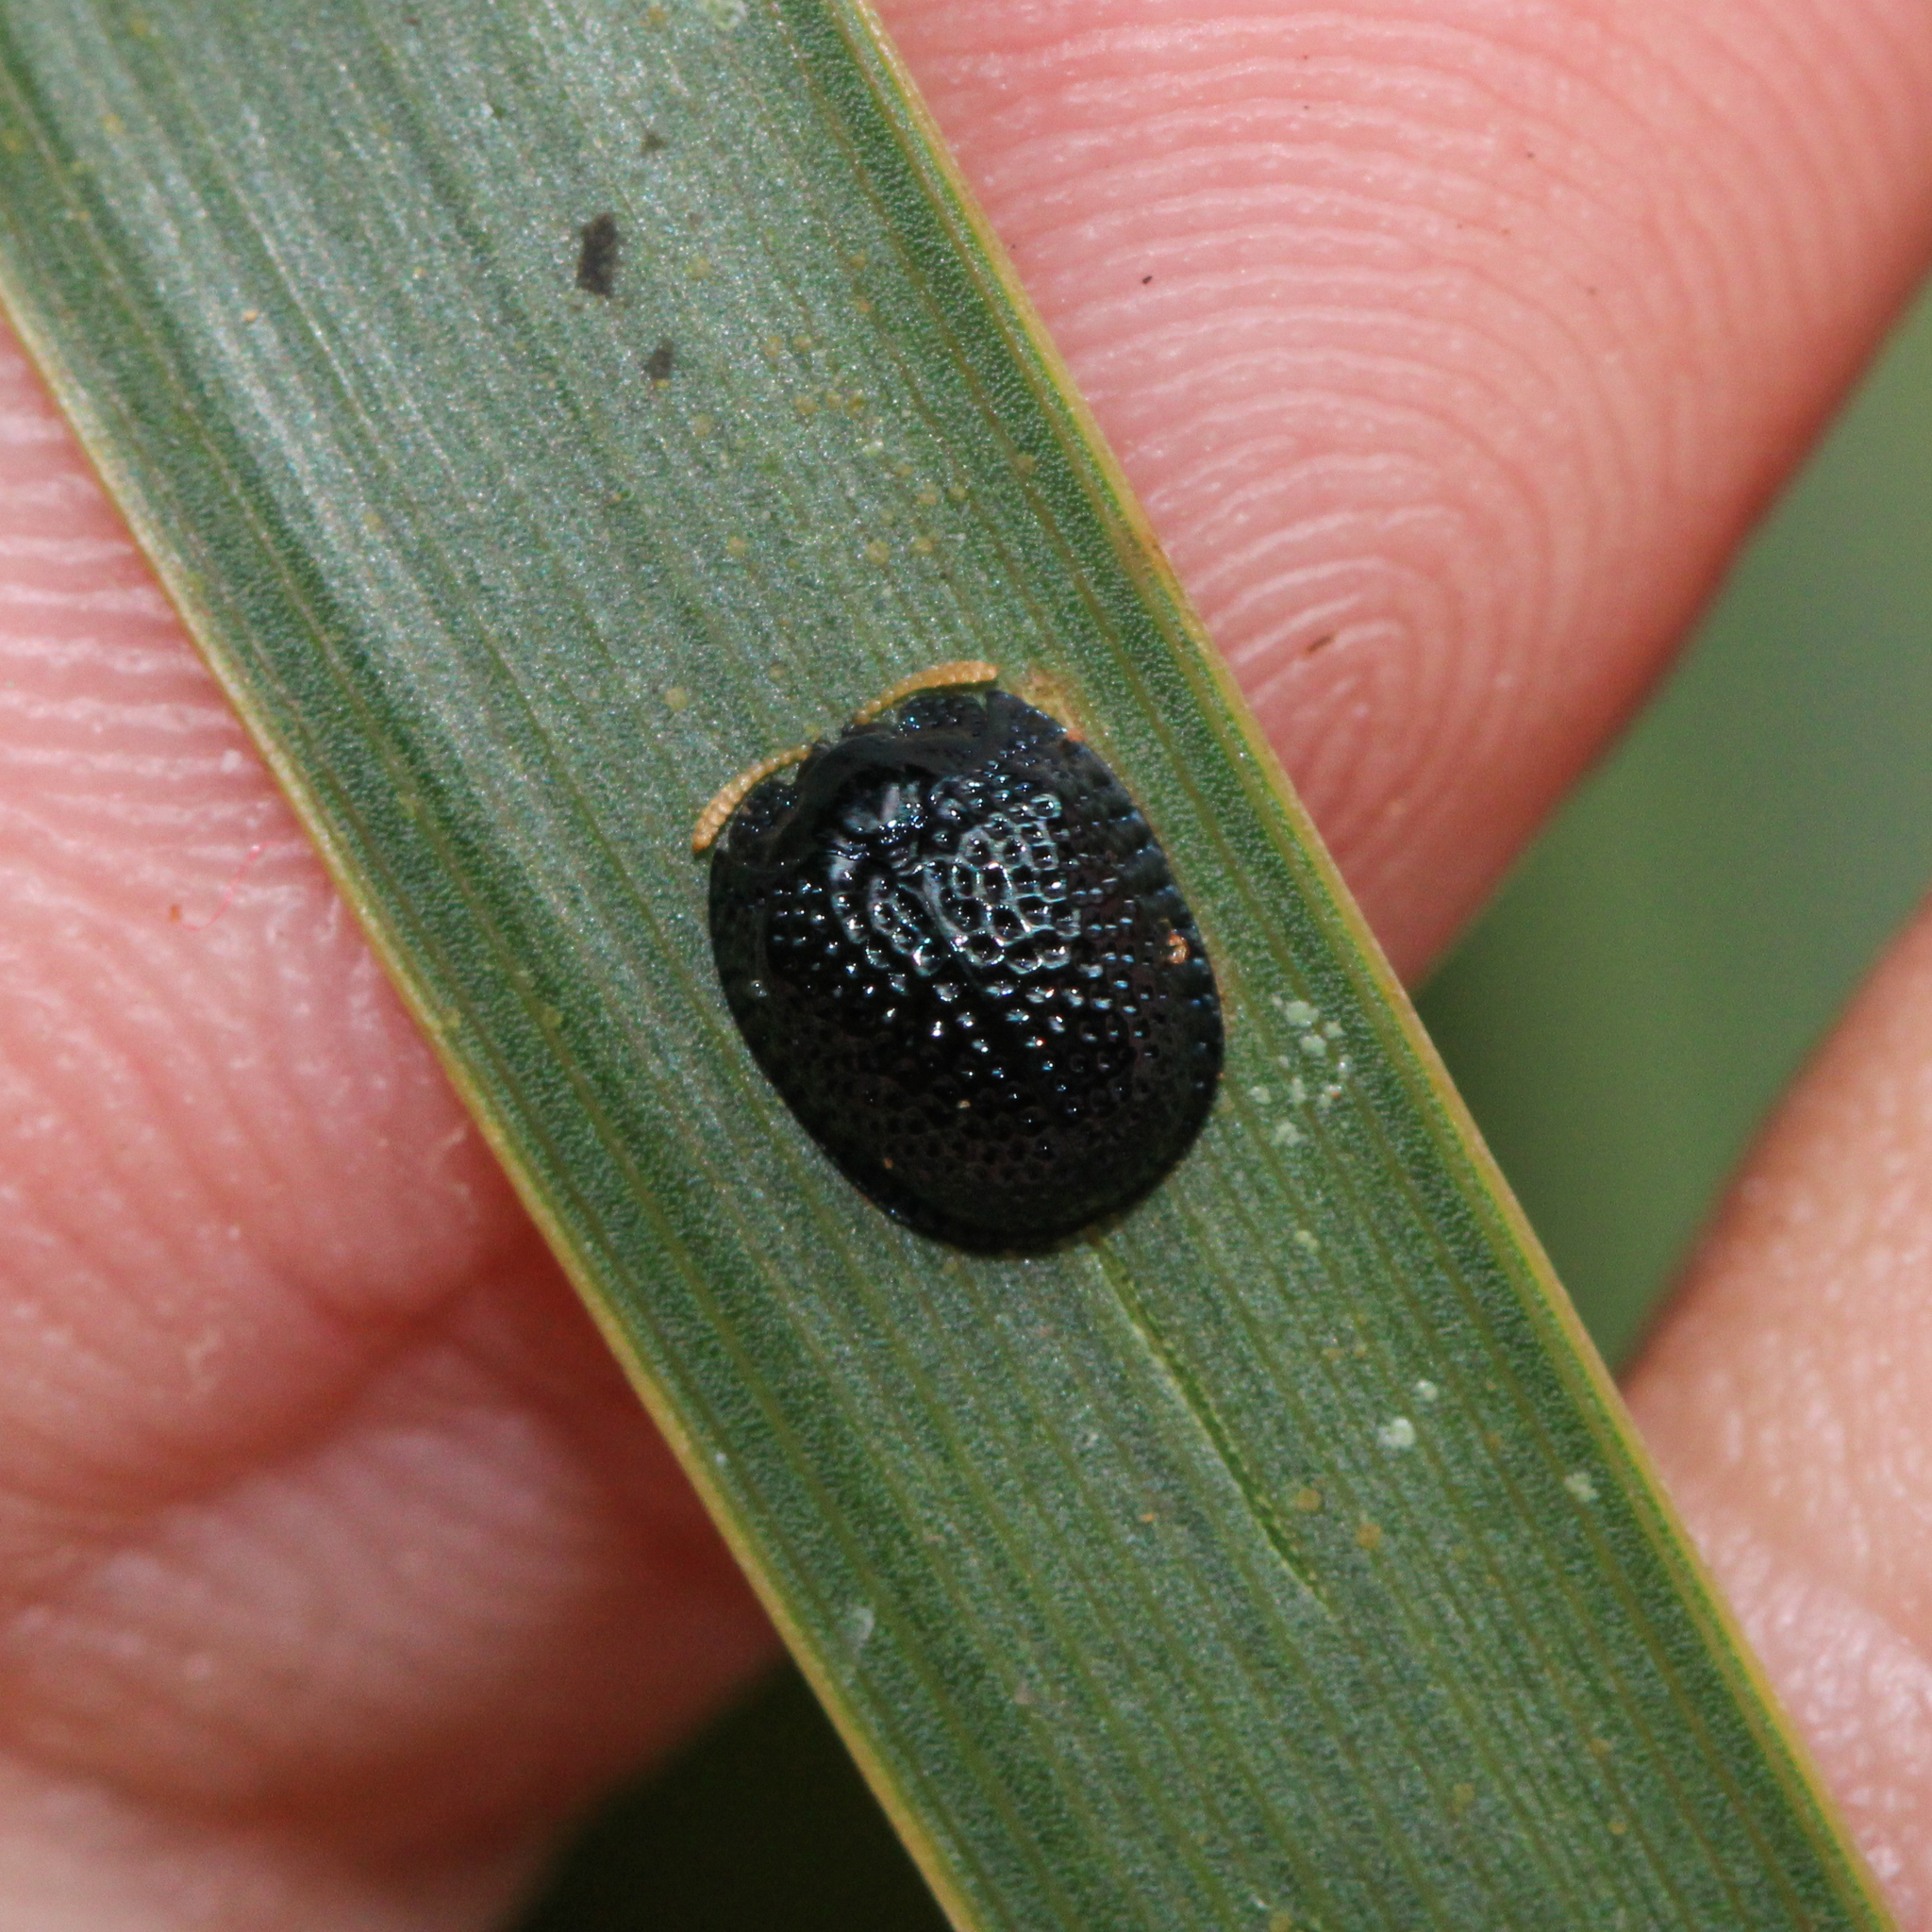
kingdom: Animalia
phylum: Arthropoda
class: Insecta
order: Coleoptera
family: Chrysomelidae
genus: Hemisphaerota
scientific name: Hemisphaerota cyanea
